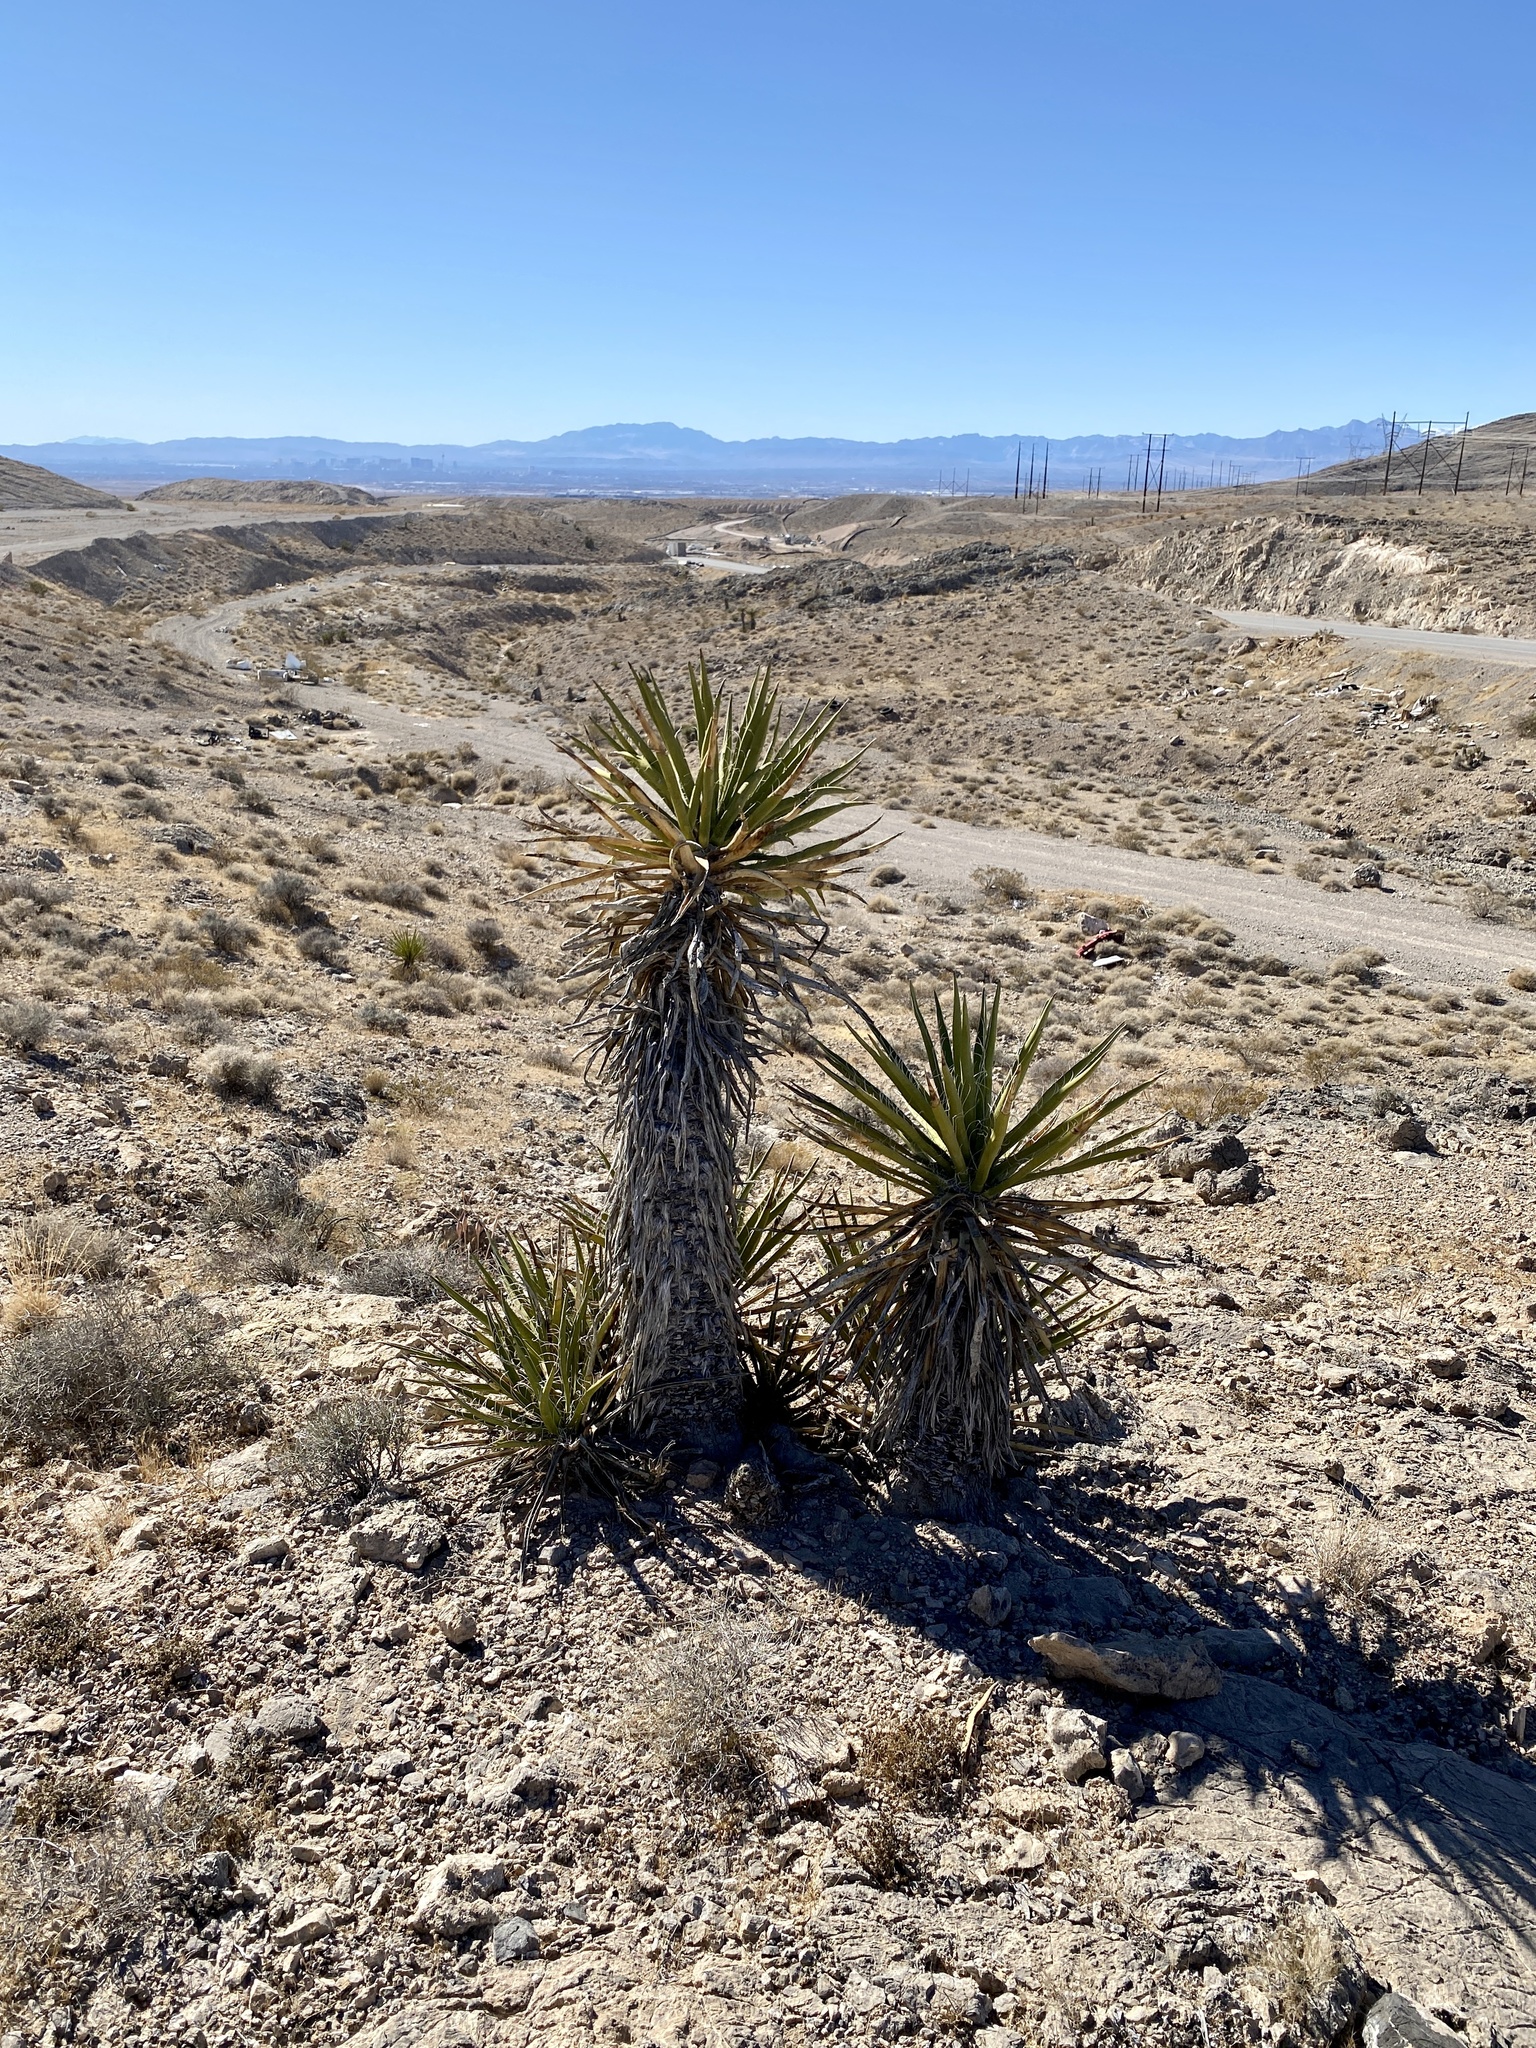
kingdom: Plantae
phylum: Tracheophyta
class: Liliopsida
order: Asparagales
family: Asparagaceae
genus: Yucca
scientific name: Yucca schidigera
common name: Mojave yucca
